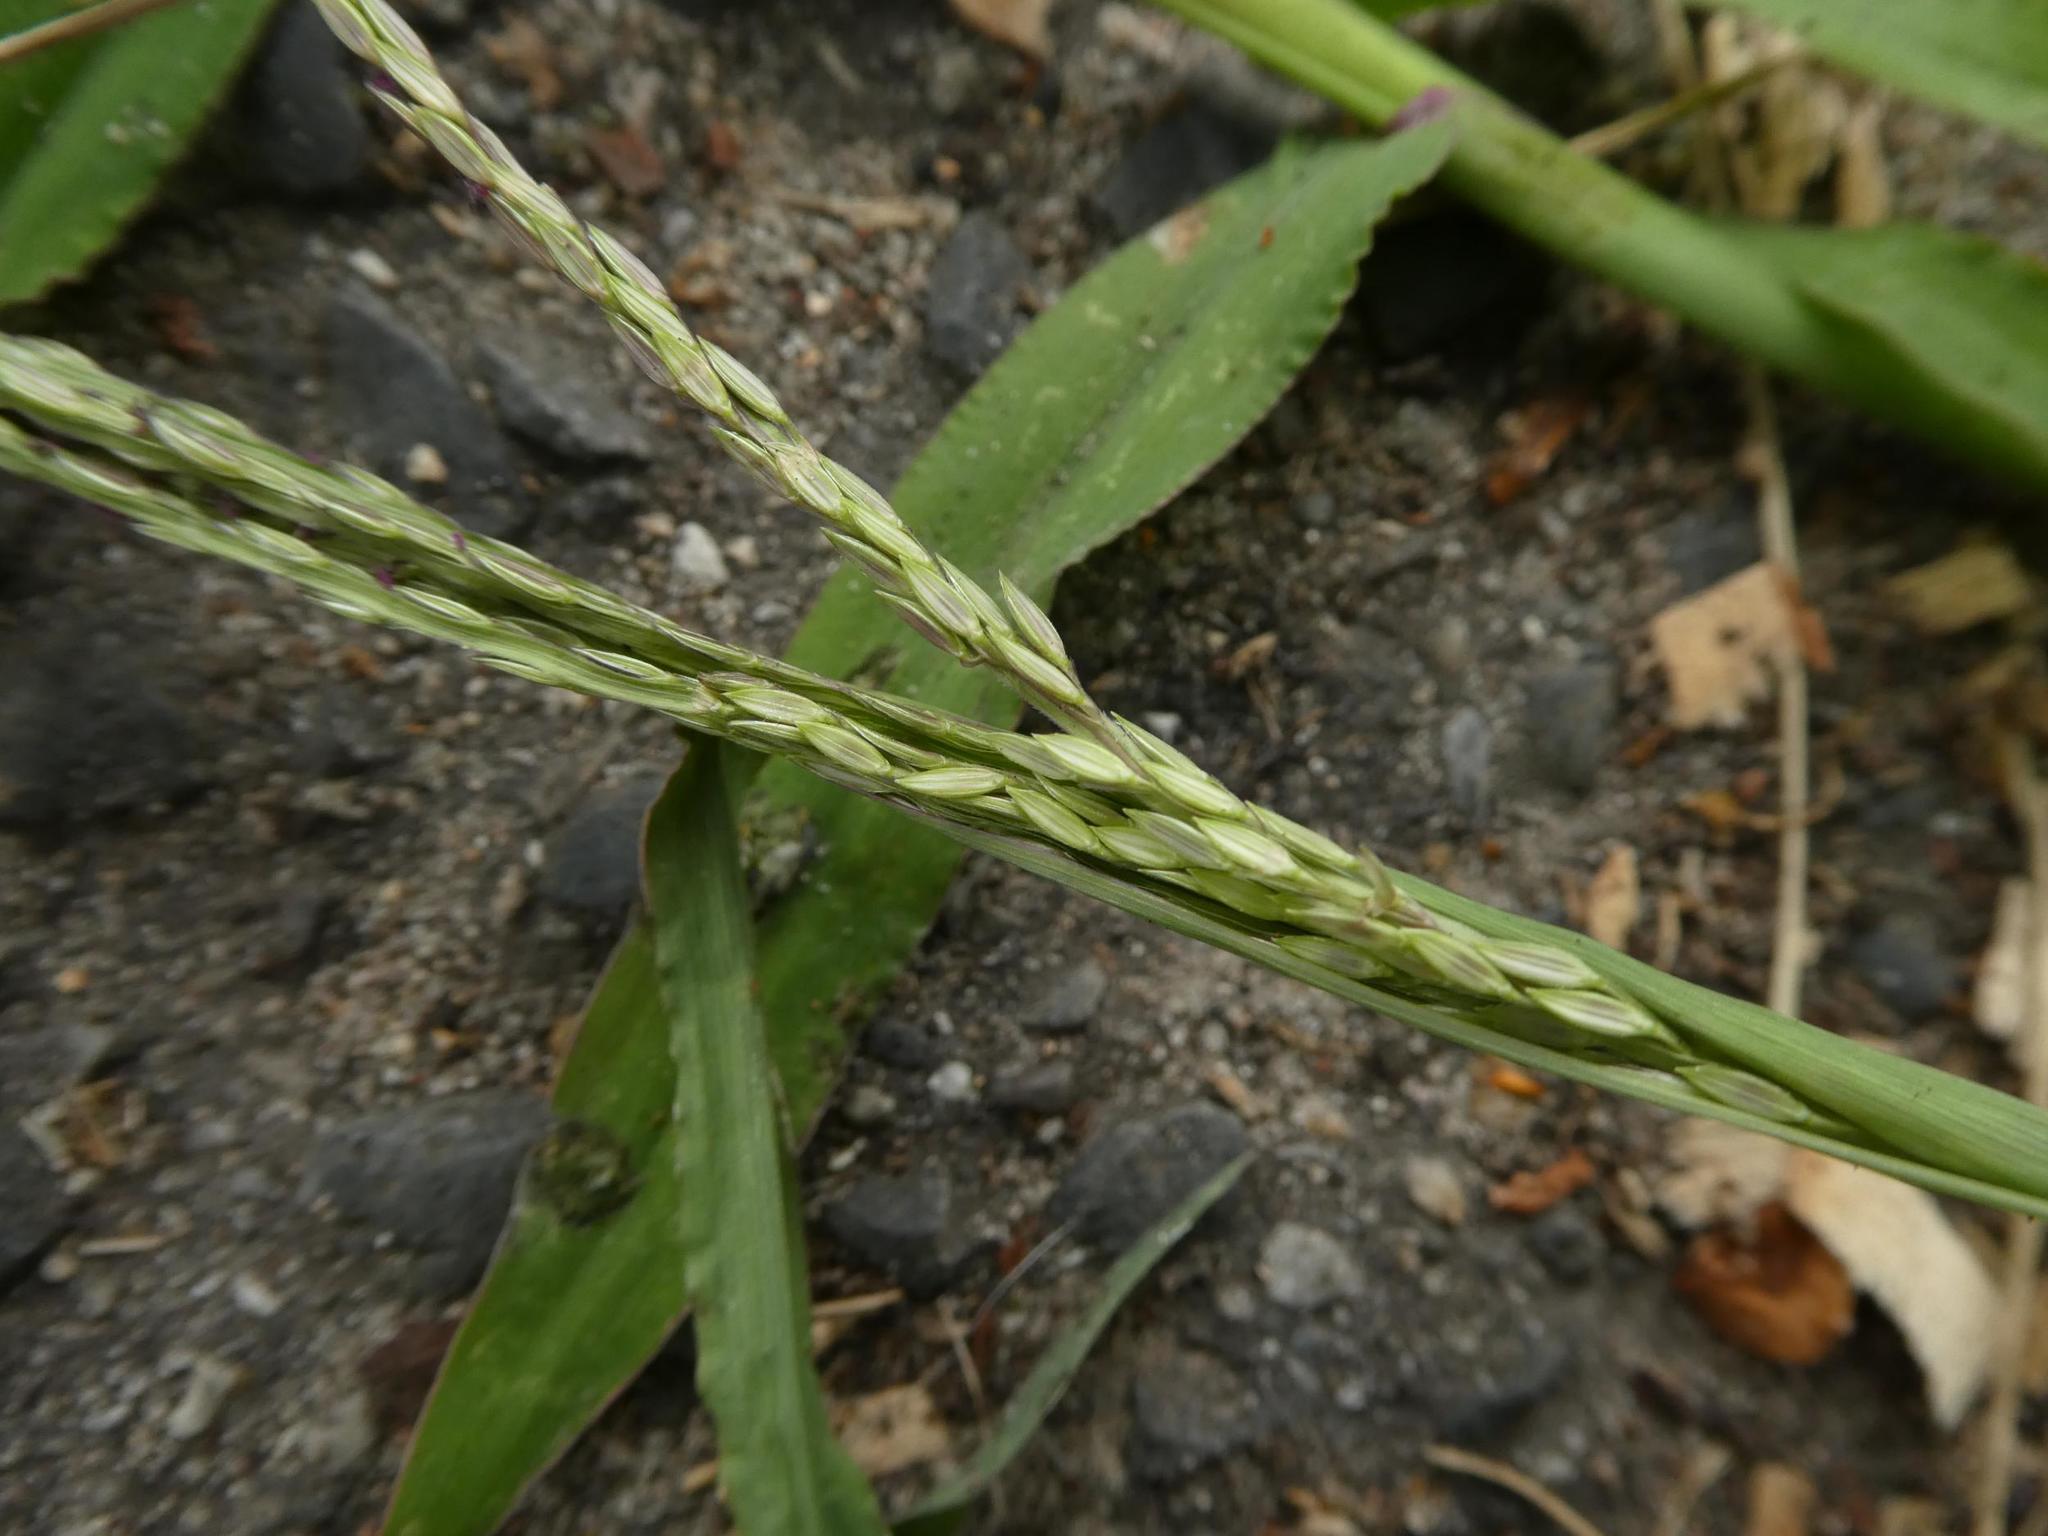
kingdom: Plantae
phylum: Tracheophyta
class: Liliopsida
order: Poales
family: Poaceae
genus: Digitaria
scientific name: Digitaria sanguinalis
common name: Hairy crabgrass
